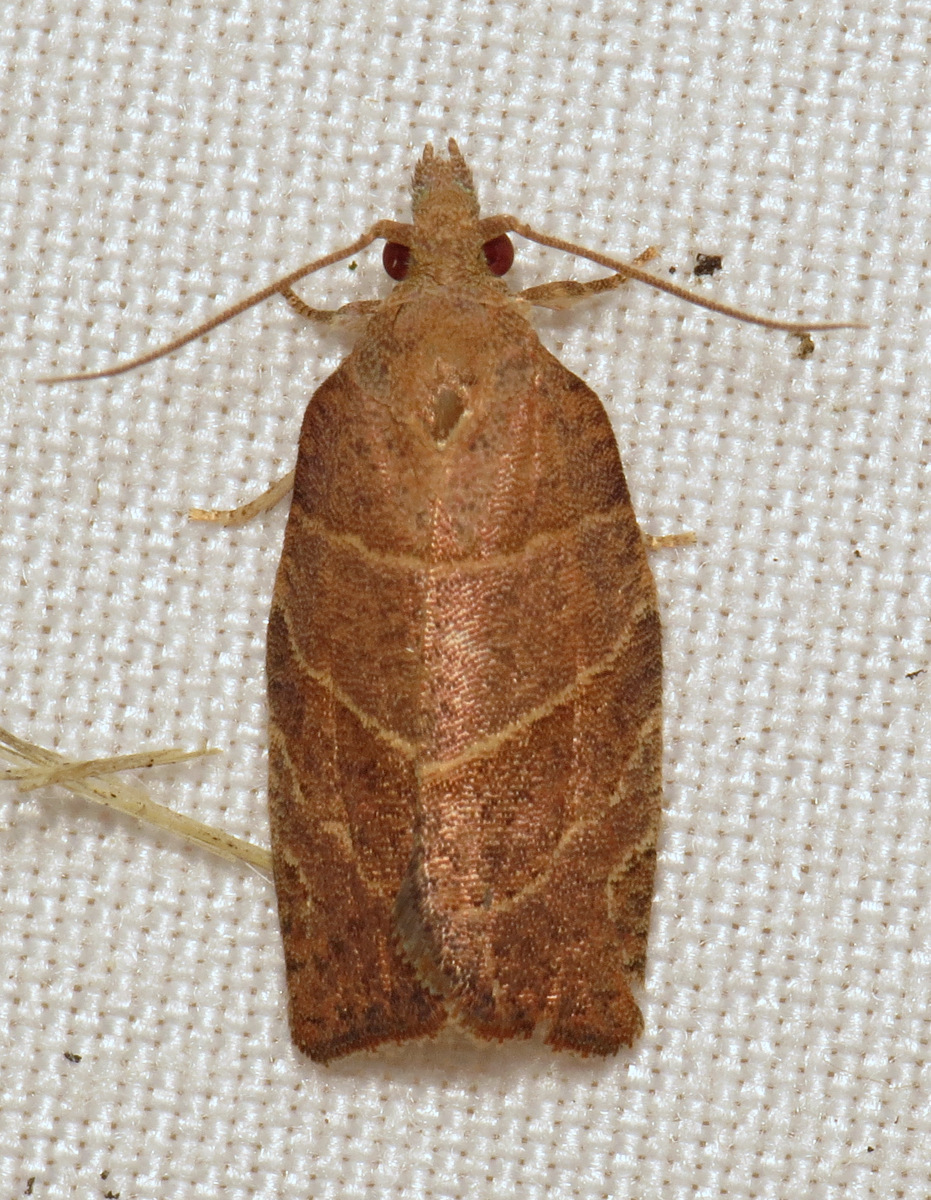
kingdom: Animalia
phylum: Arthropoda
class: Insecta
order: Lepidoptera
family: Tortricidae
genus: Pandemis
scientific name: Pandemis limitata
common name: Three-lined leafroller moth
